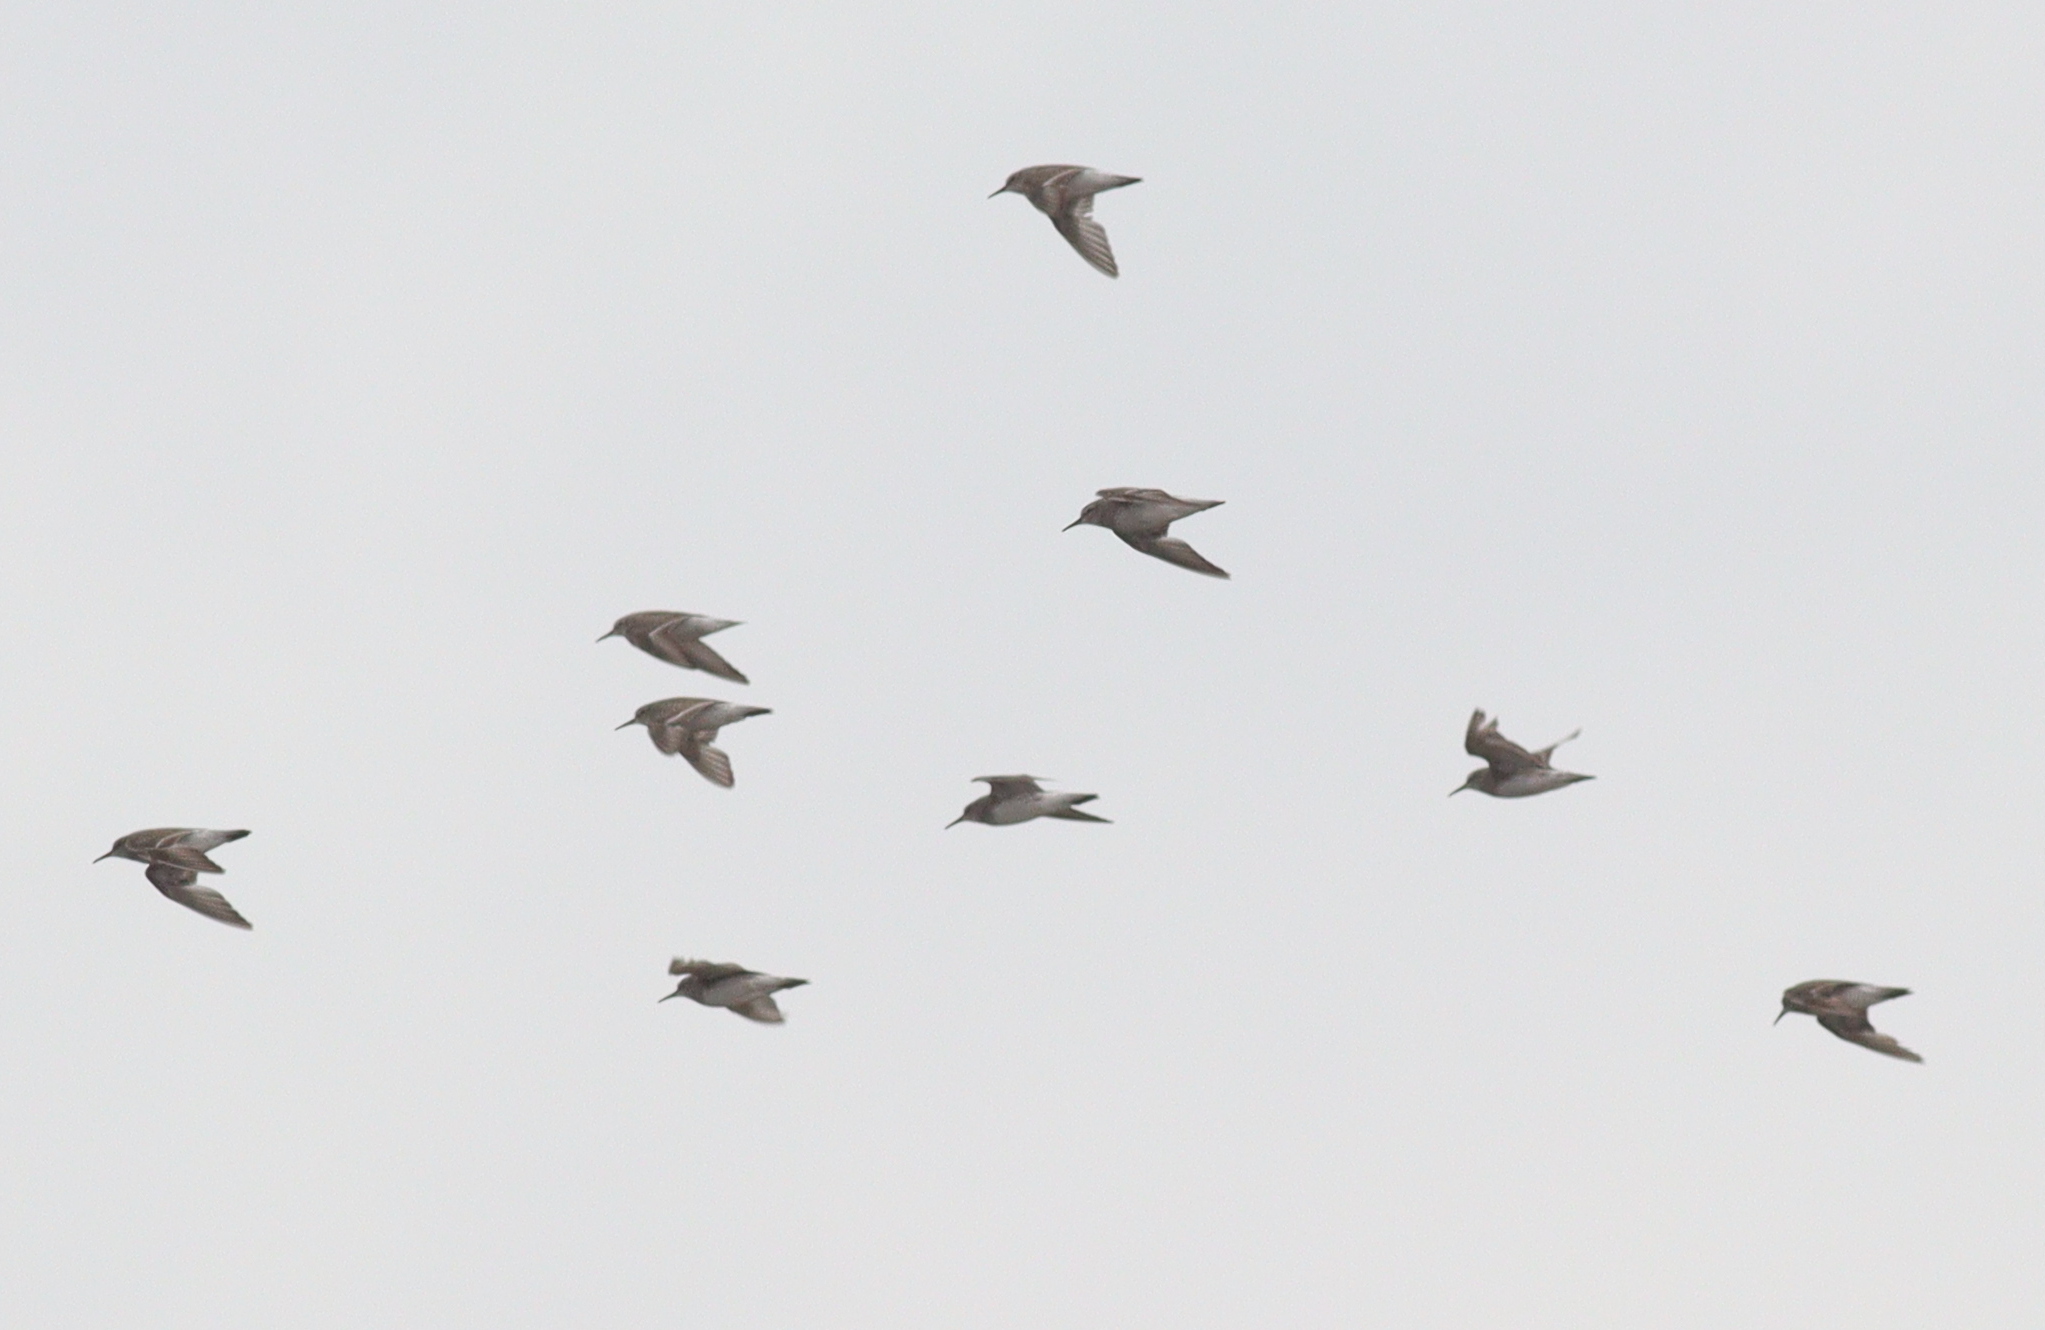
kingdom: Animalia
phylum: Chordata
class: Aves
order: Charadriiformes
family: Scolopacidae
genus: Calidris
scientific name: Calidris fuscicollis
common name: White-rumped sandpiper
